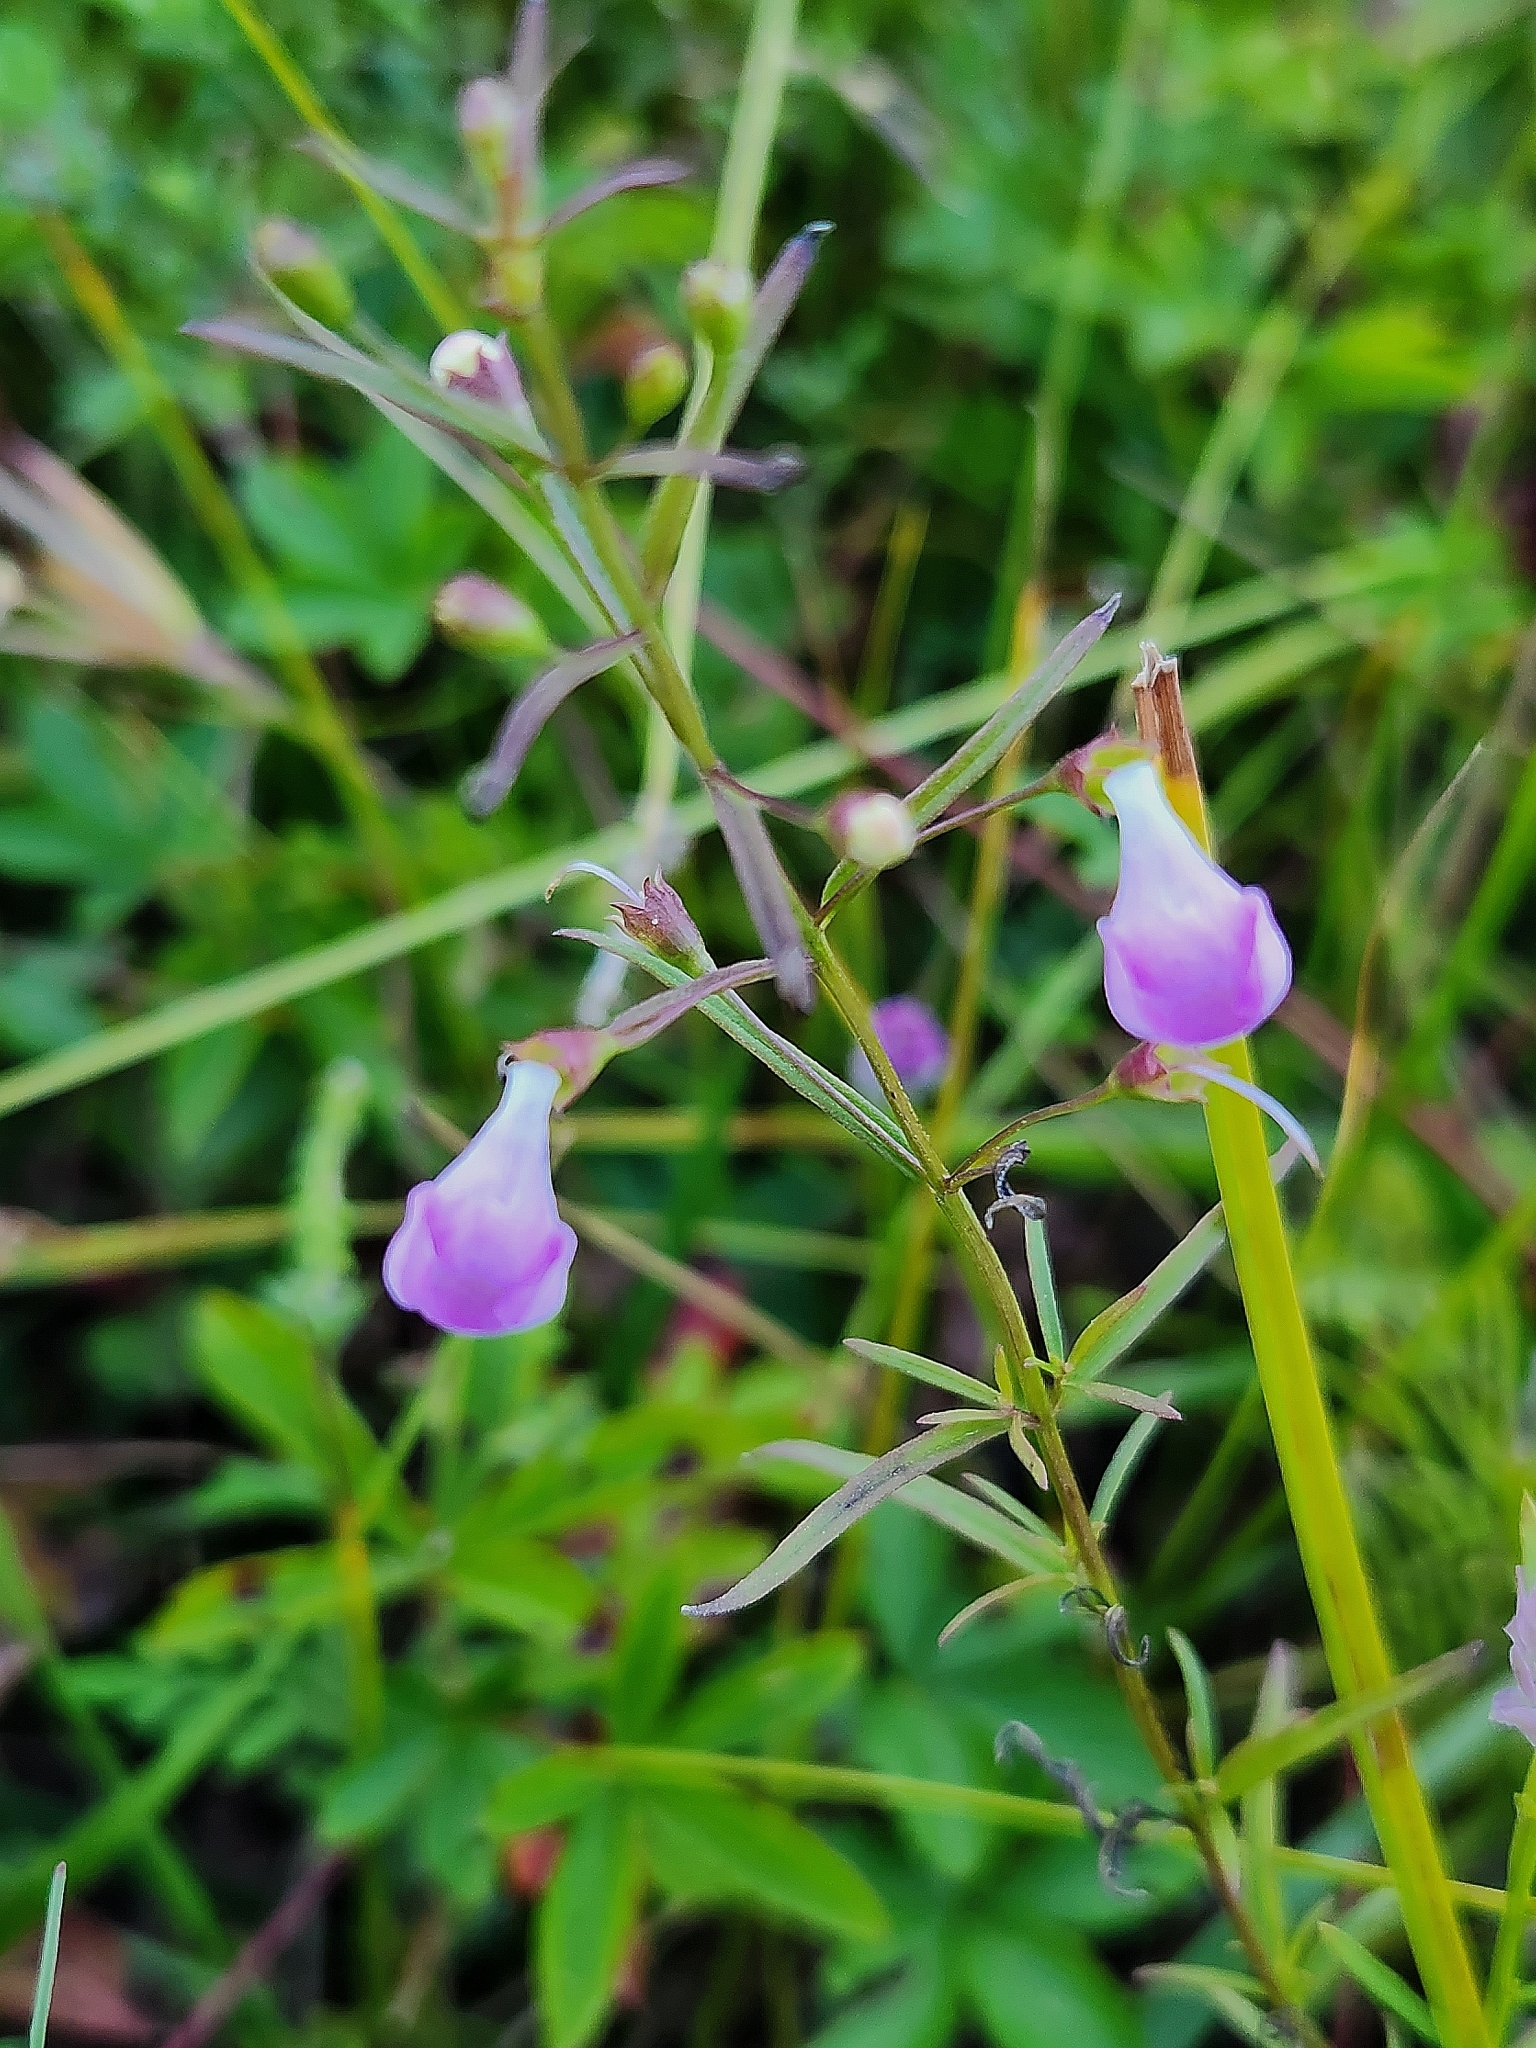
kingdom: Plantae
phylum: Tracheophyta
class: Magnoliopsida
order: Lamiales
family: Orobanchaceae
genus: Agalinis
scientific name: Agalinis tenuifolia
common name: Slender agalinis
